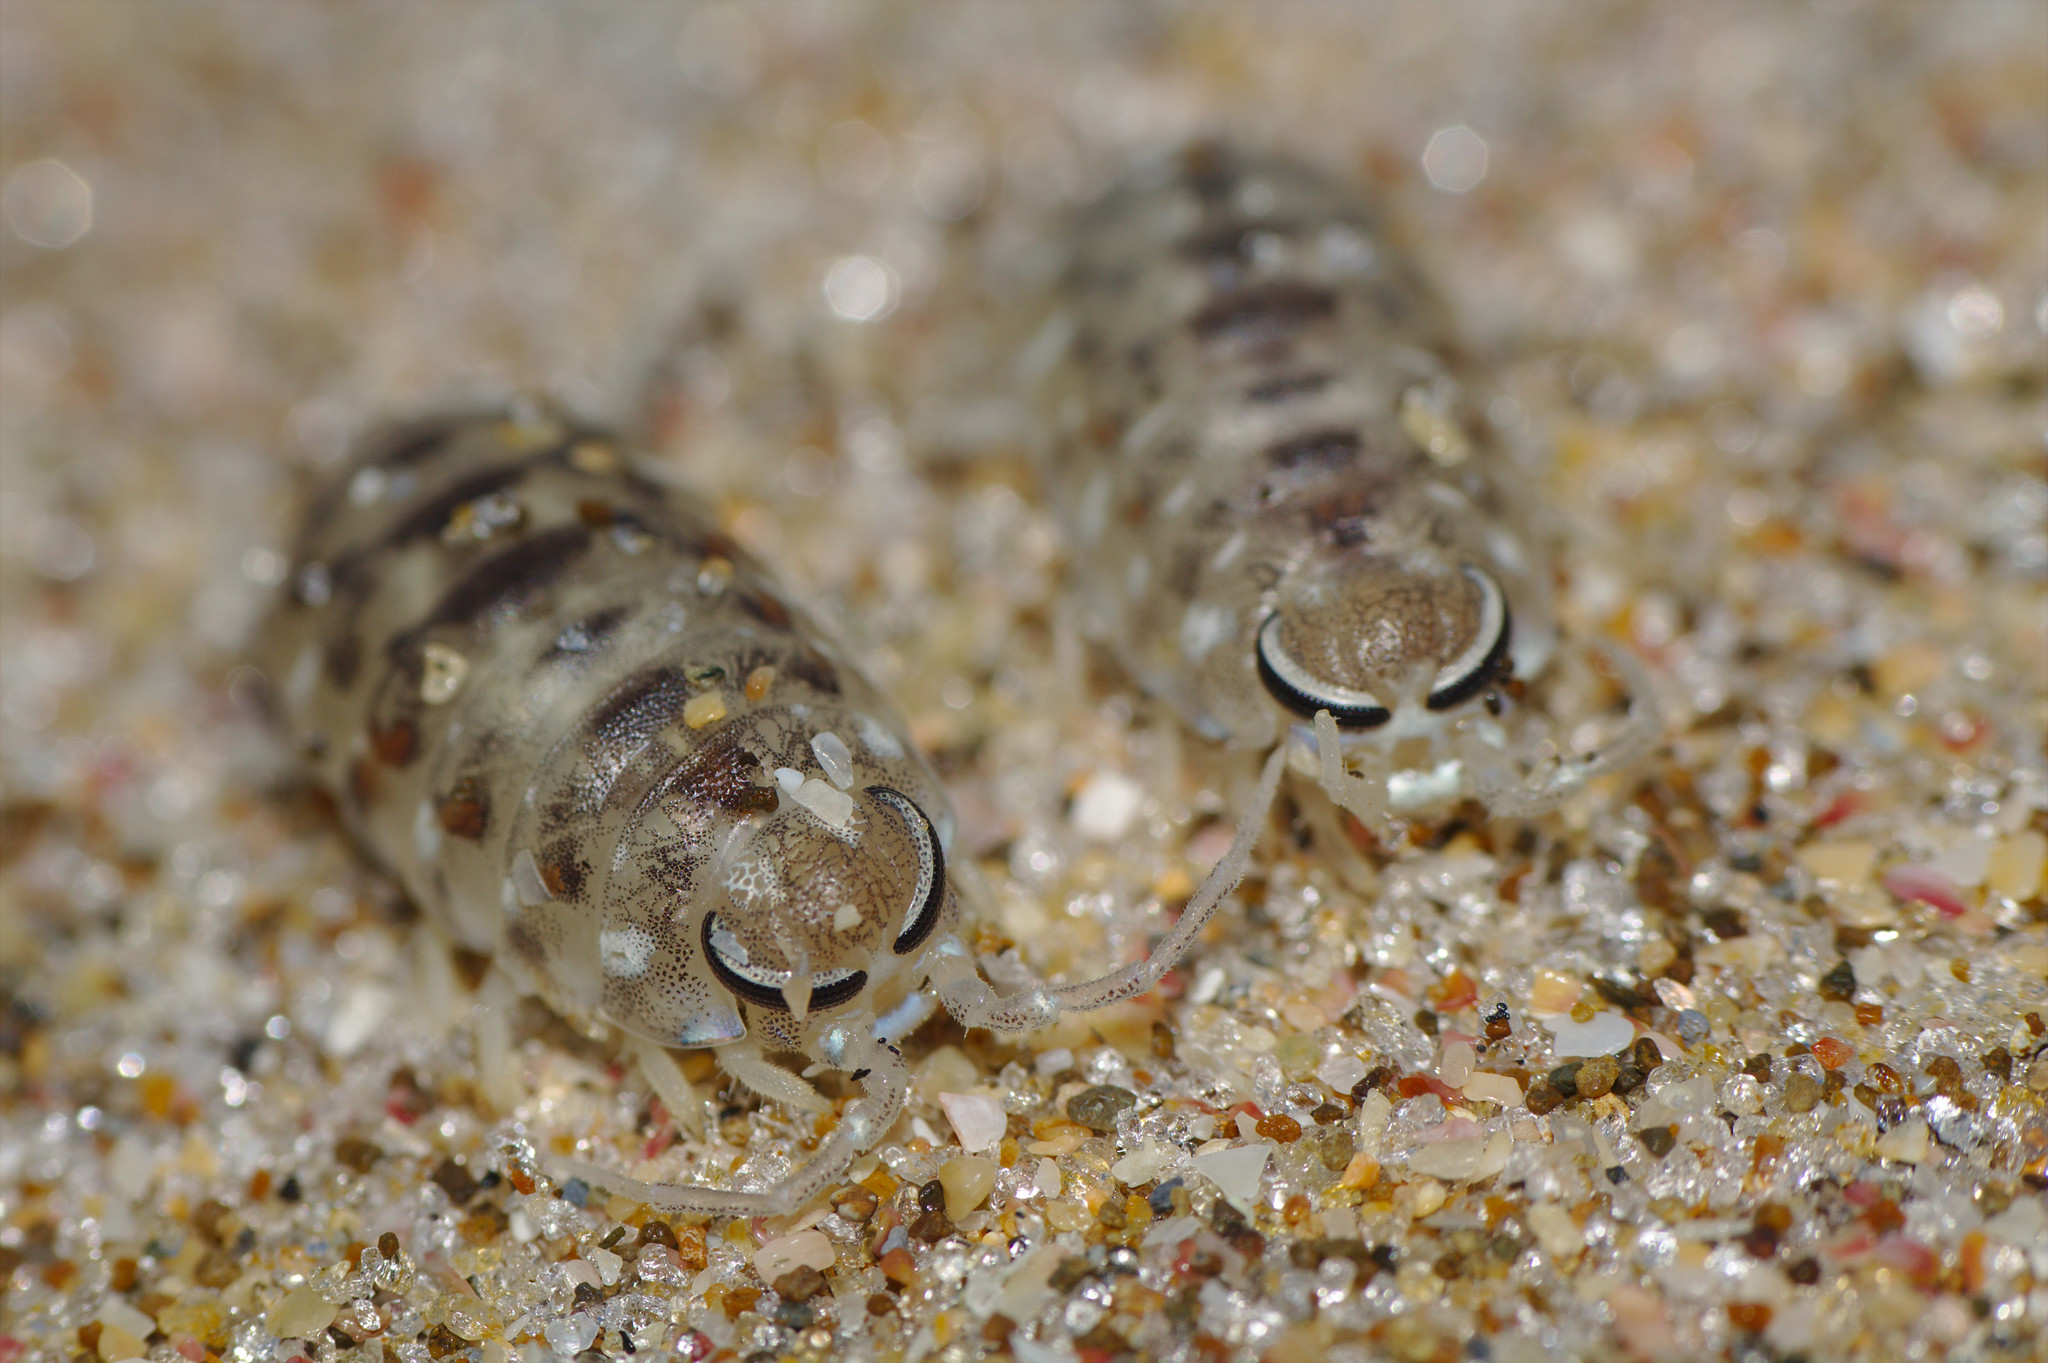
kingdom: Animalia
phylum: Arthropoda
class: Malacostraca
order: Isopoda
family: Scyphacidae
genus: Scyphax
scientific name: Scyphax ornatus
